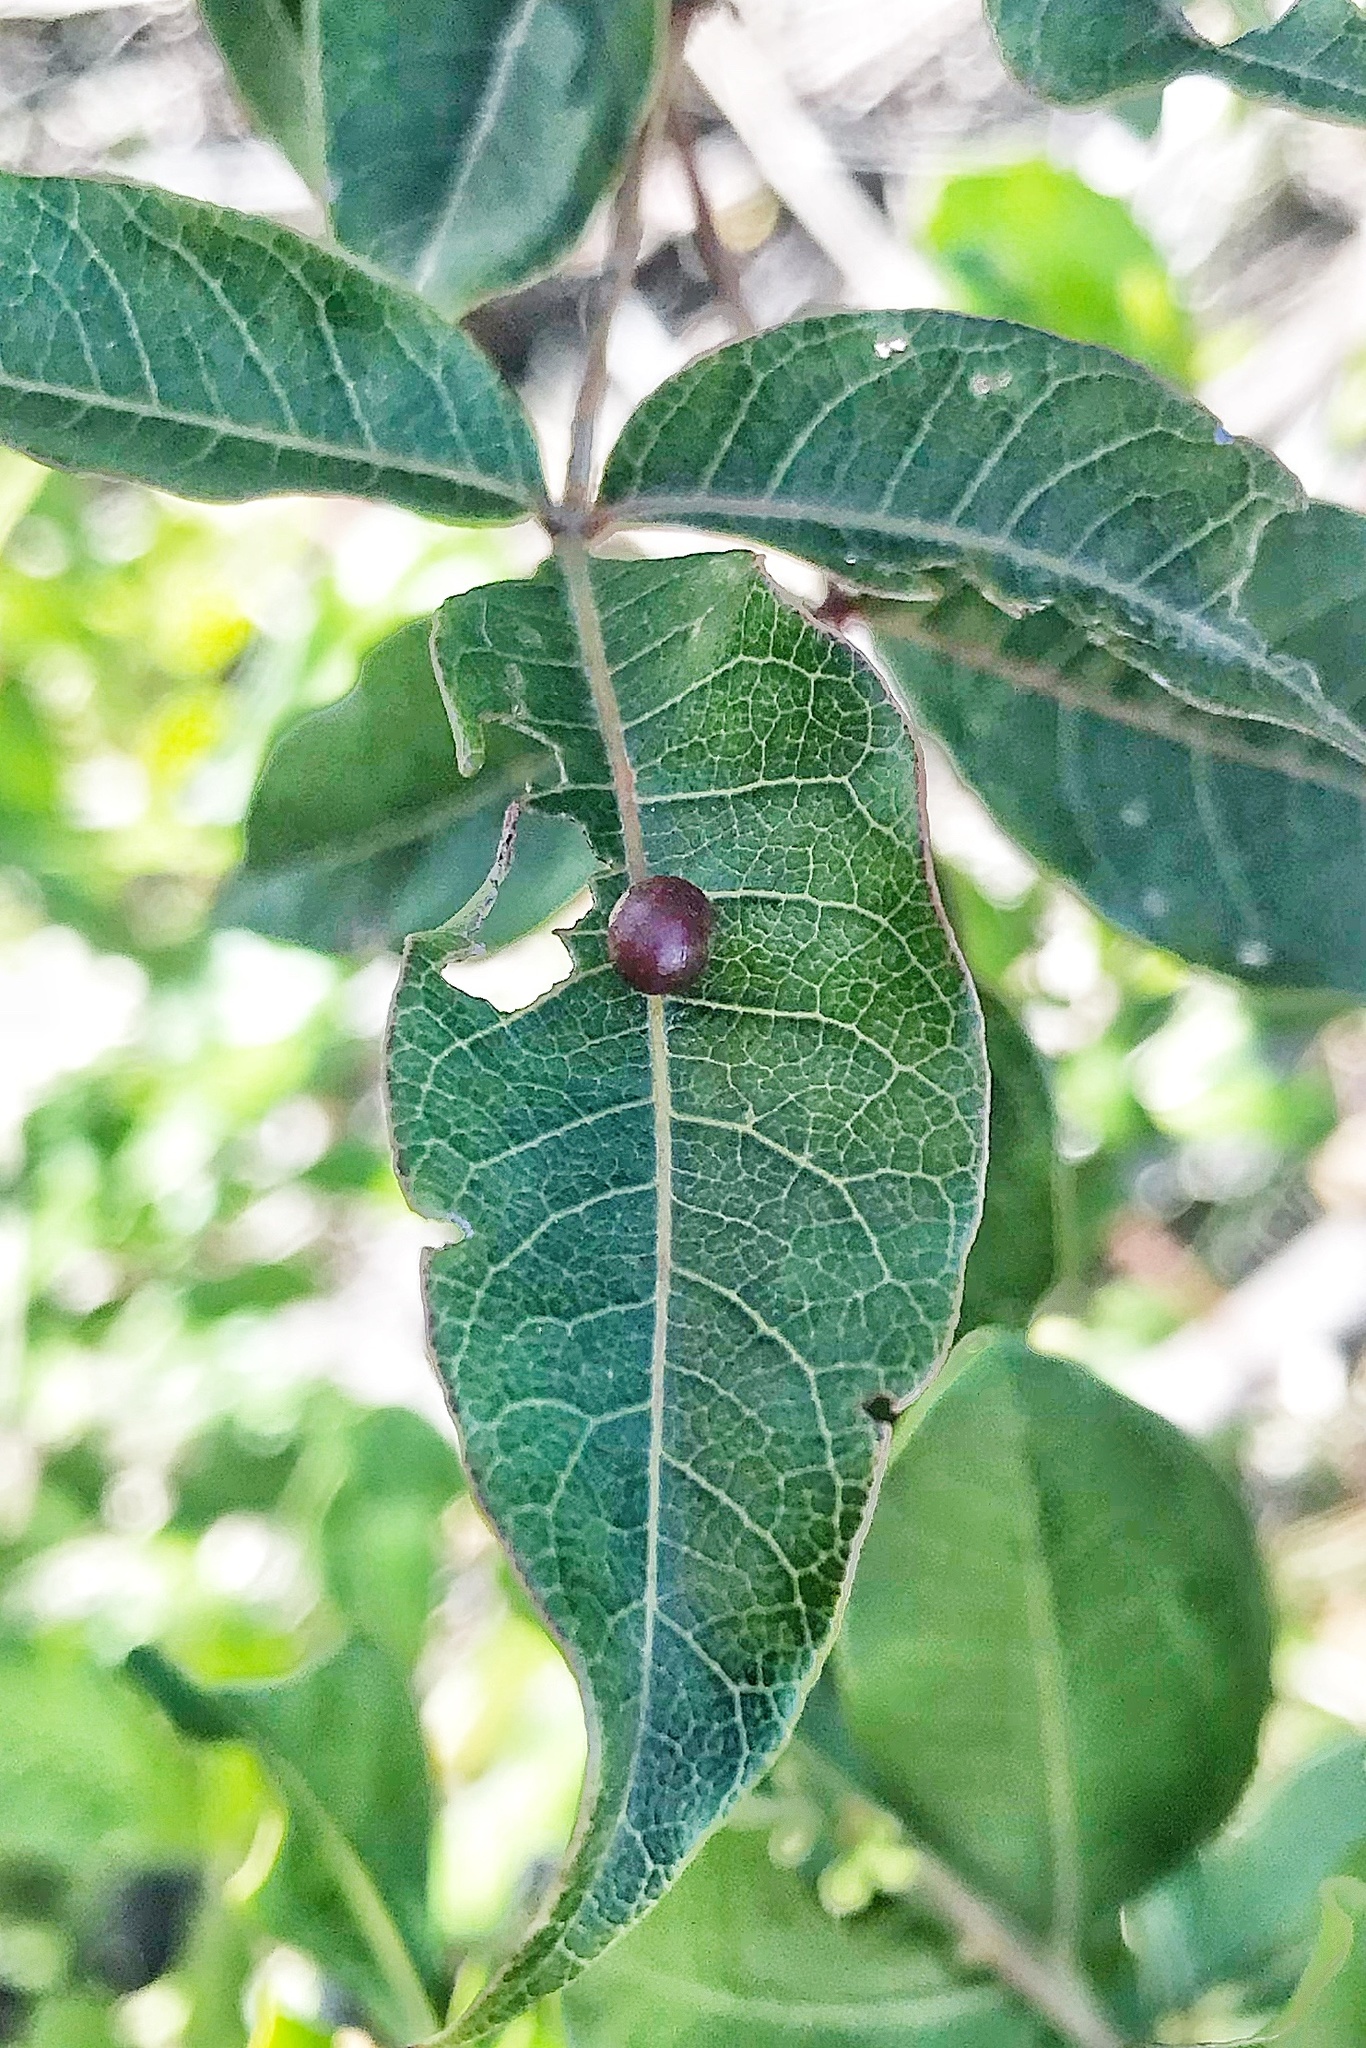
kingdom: Plantae
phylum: Tracheophyta
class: Magnoliopsida
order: Sapindales
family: Anacardiaceae
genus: Searsia
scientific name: Searsia chirindensis
